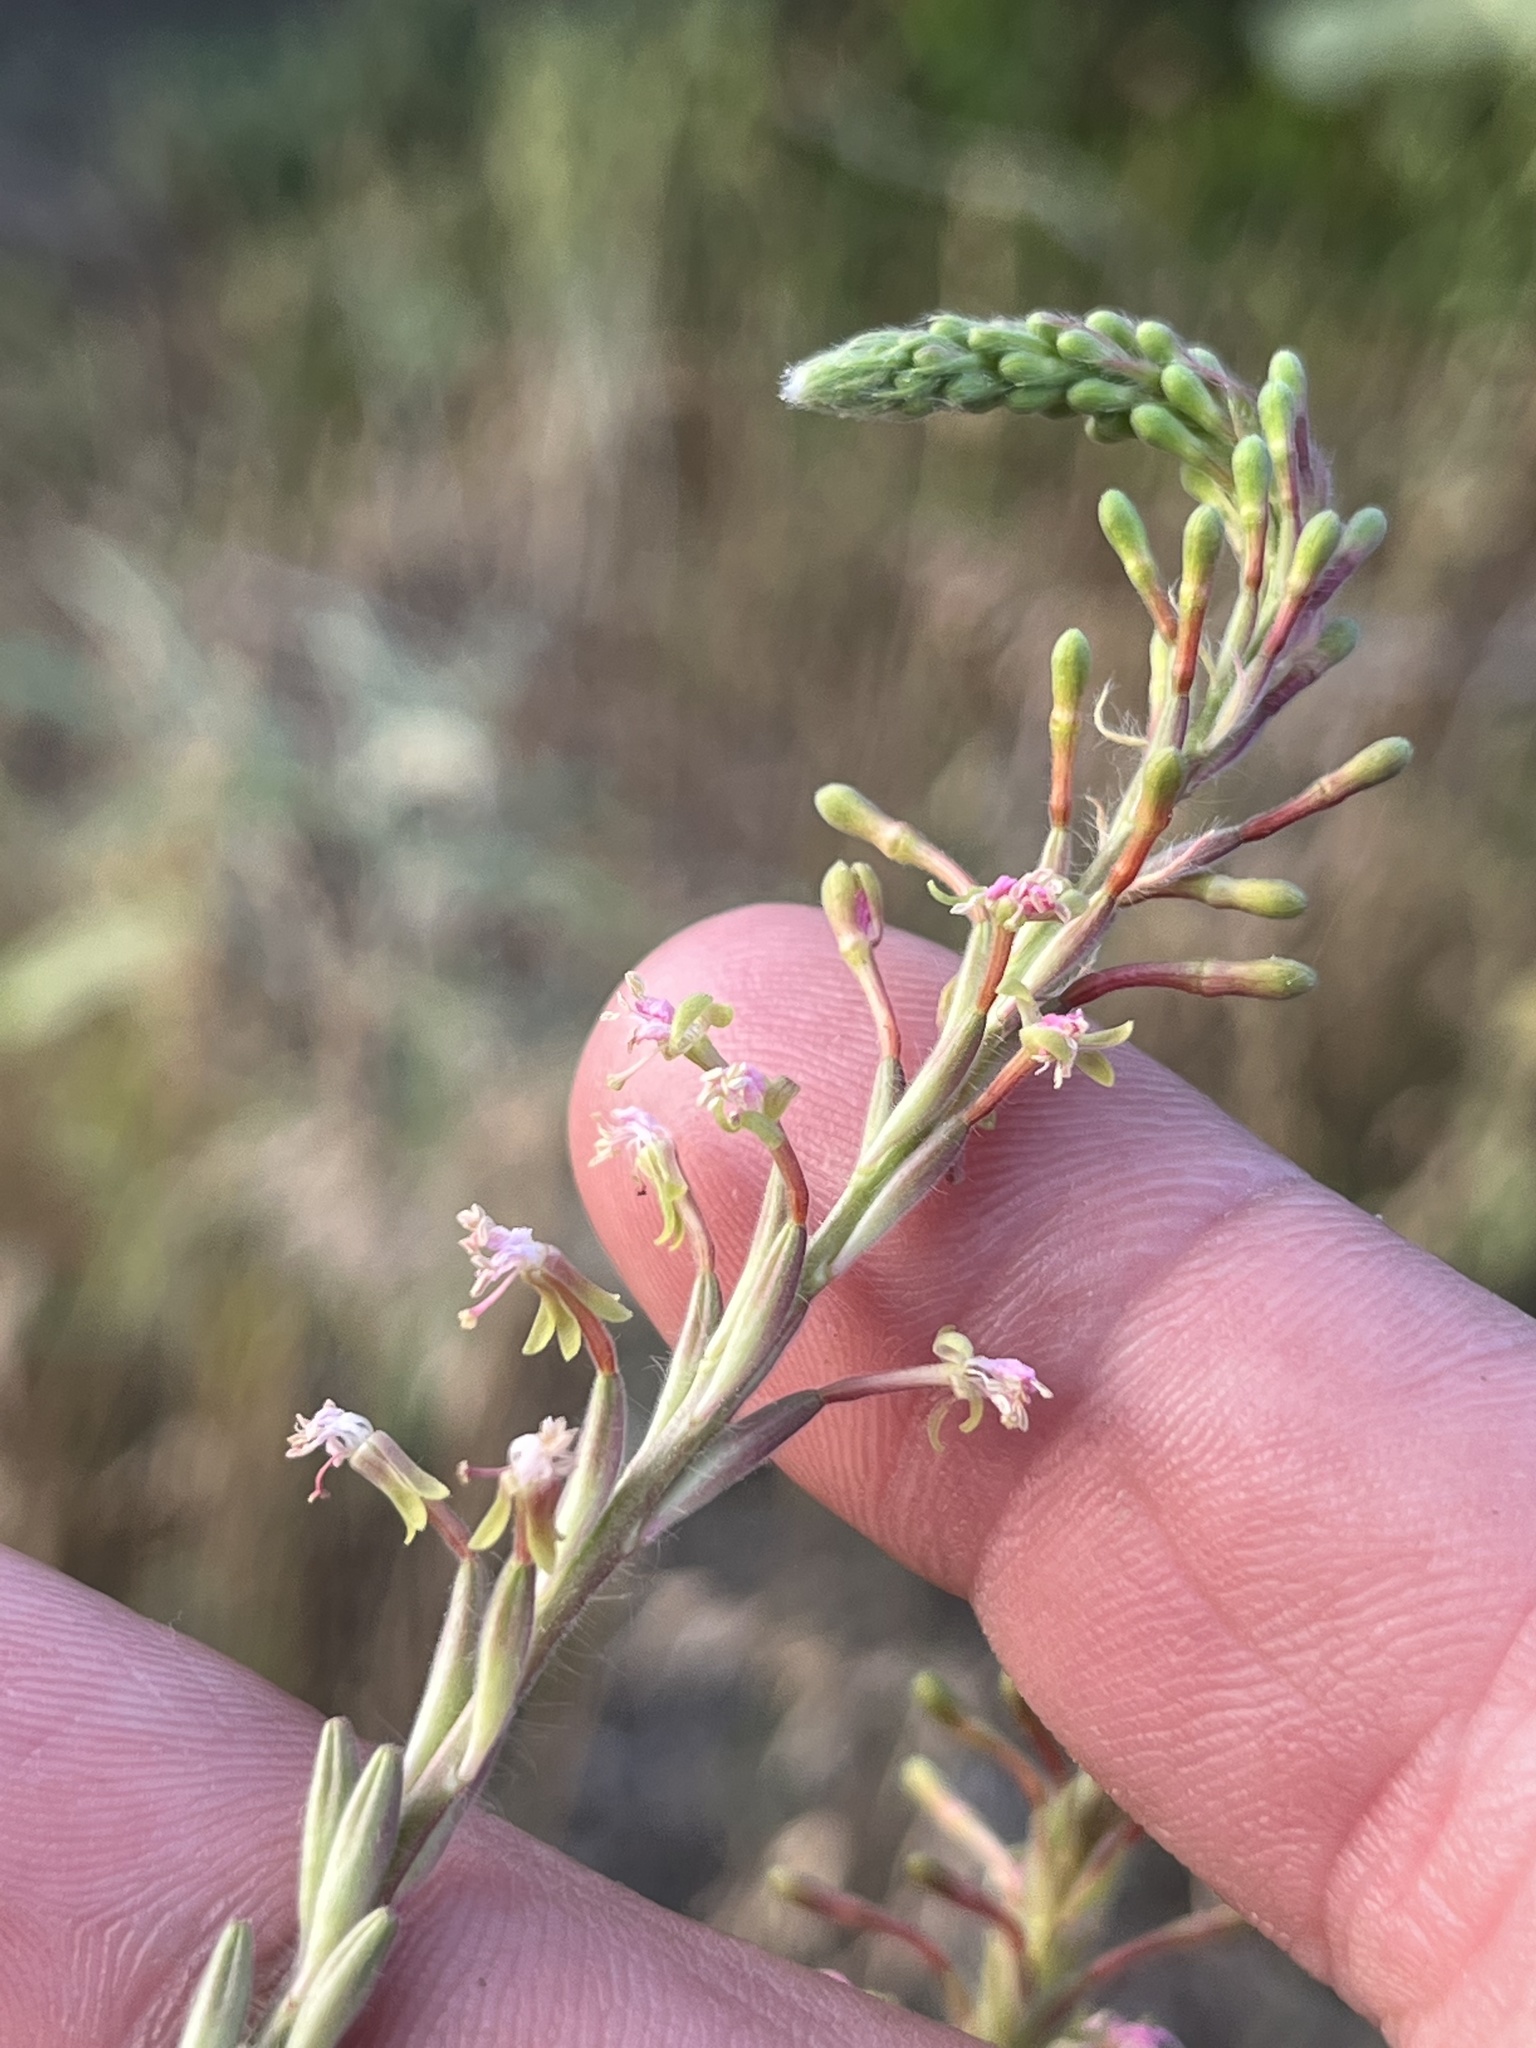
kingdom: Plantae
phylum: Tracheophyta
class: Magnoliopsida
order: Myrtales
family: Onagraceae
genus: Oenothera
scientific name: Oenothera curtiflora
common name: Velvetweed
